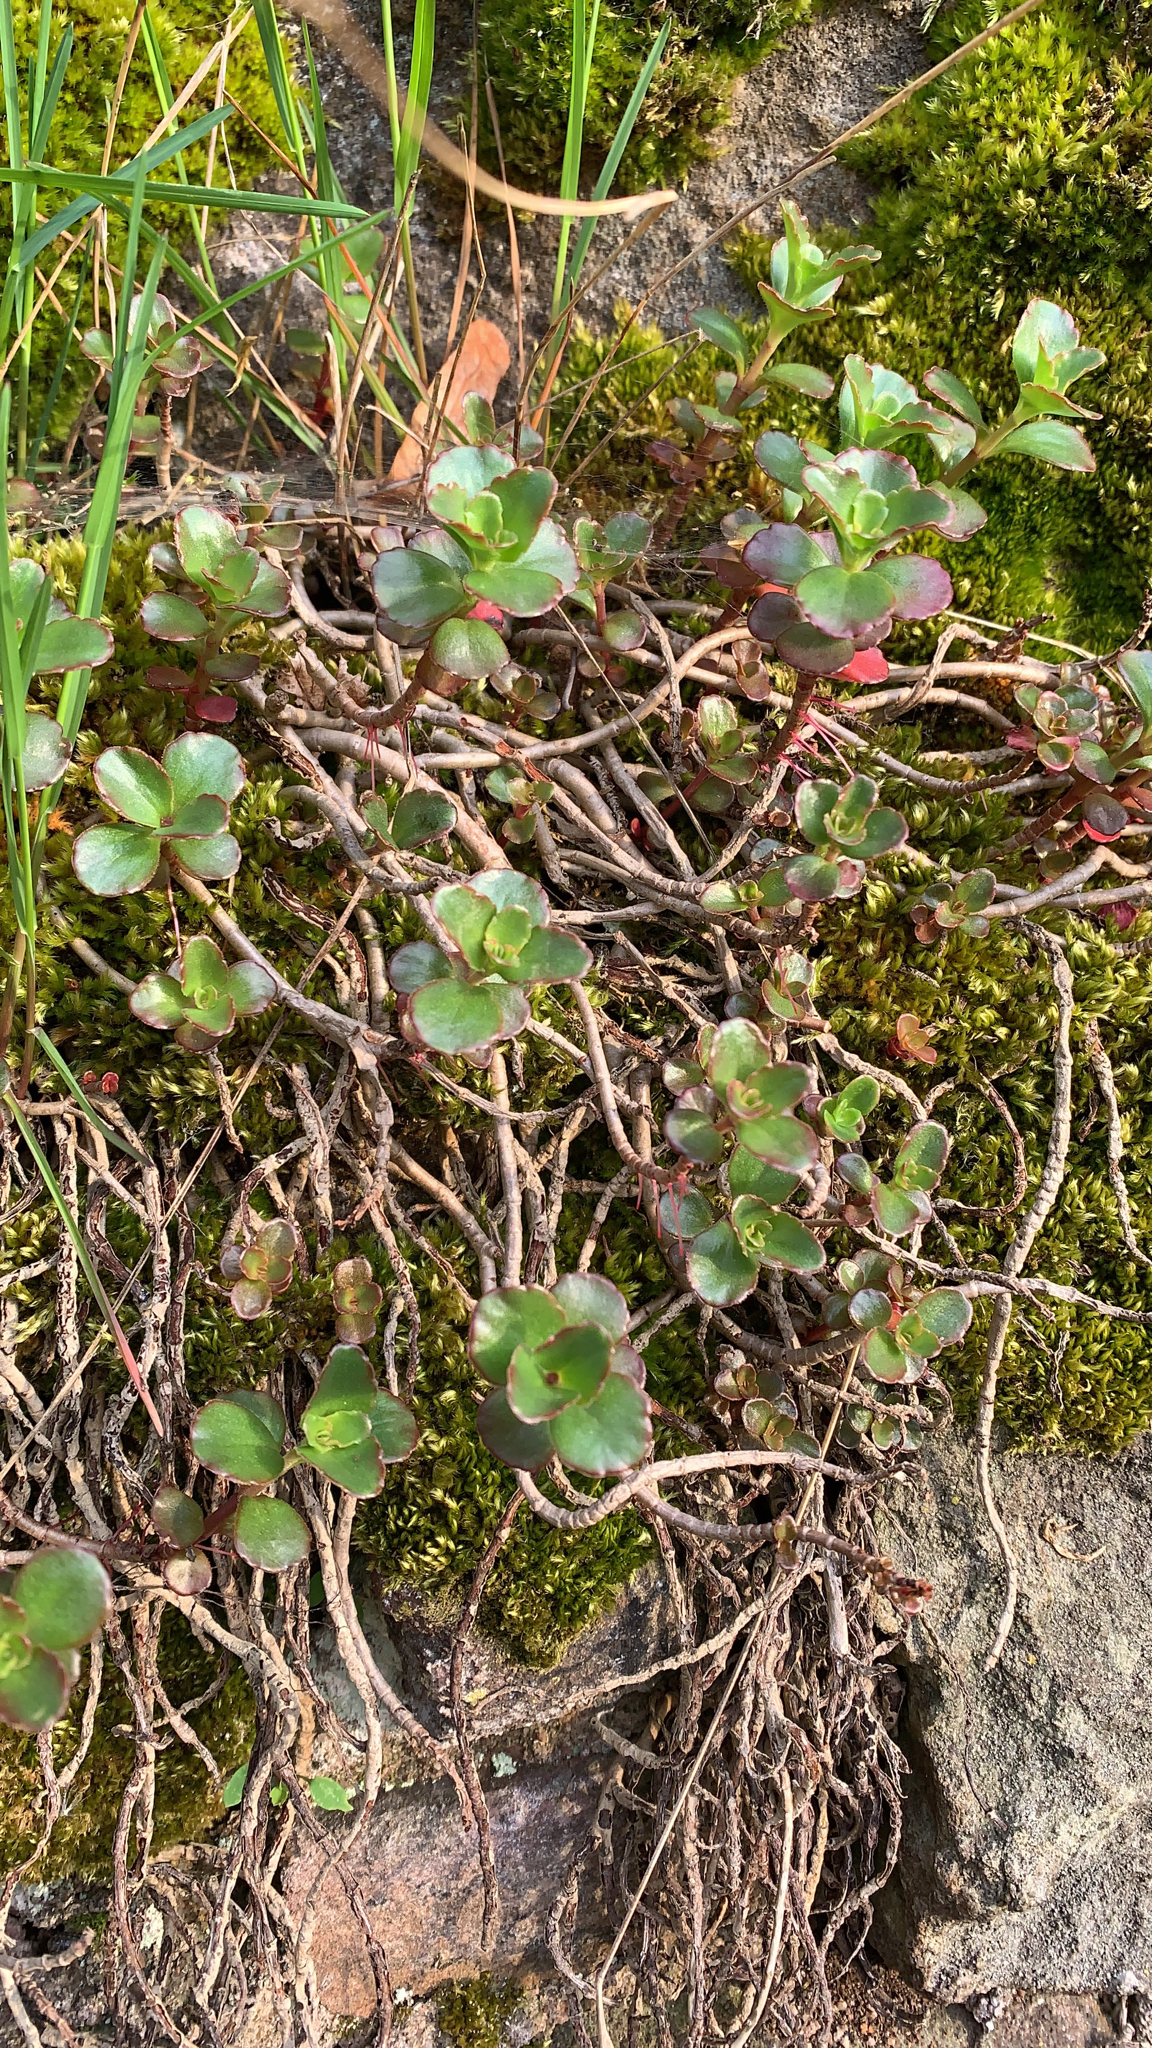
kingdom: Plantae
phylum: Tracheophyta
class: Magnoliopsida
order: Saxifragales
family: Crassulaceae
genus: Phedimus
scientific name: Phedimus spurius
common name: Caucasian stonecrop
